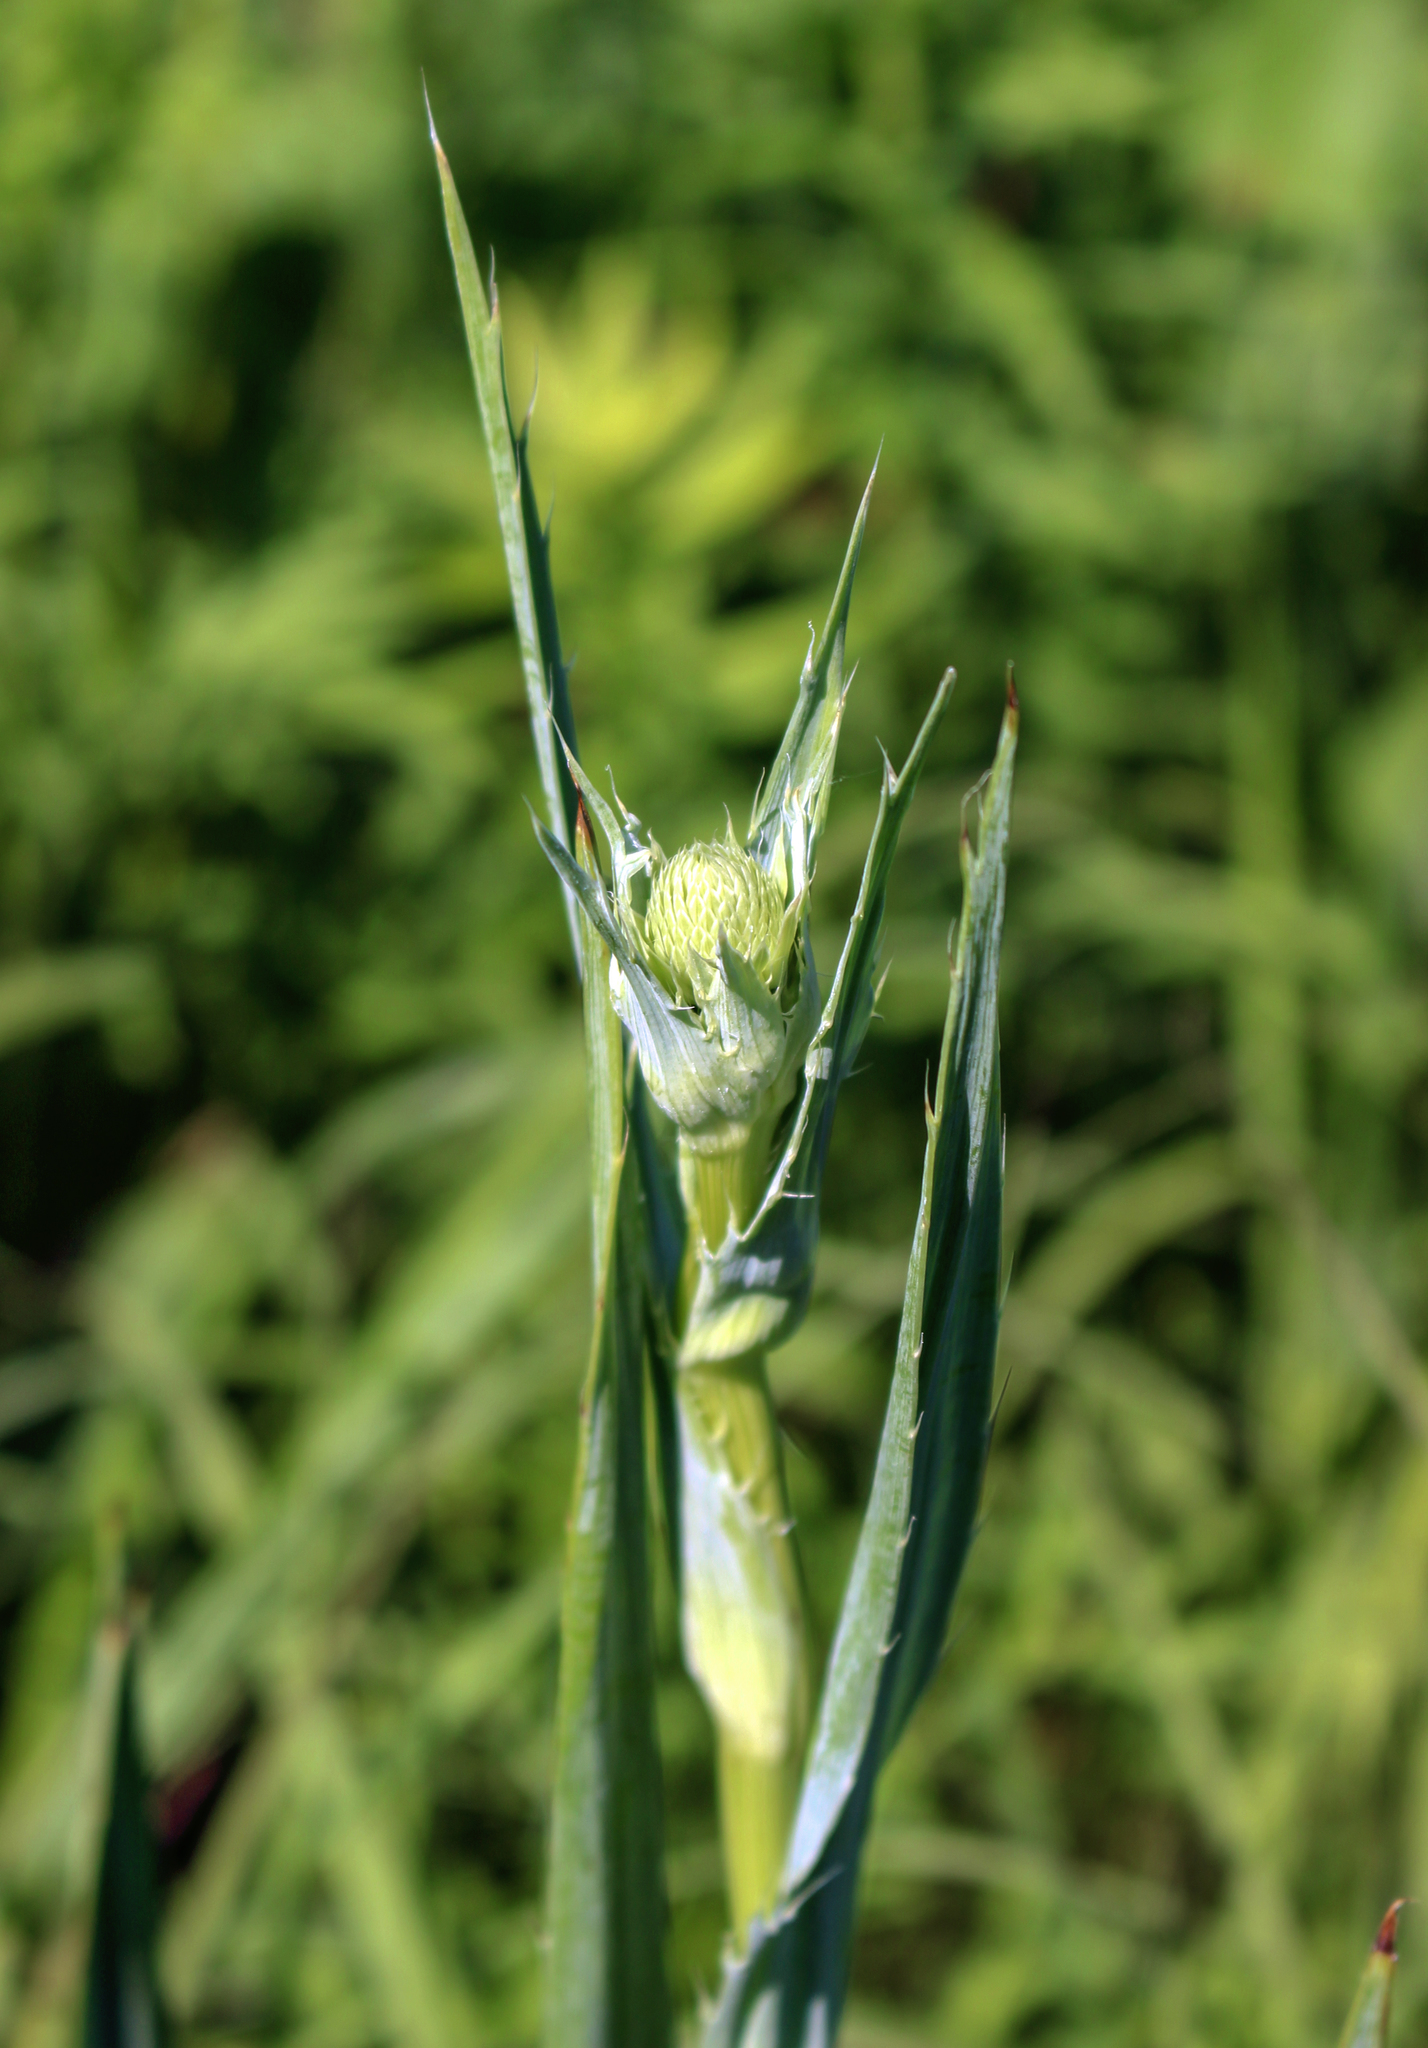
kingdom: Plantae
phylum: Tracheophyta
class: Magnoliopsida
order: Apiales
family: Apiaceae
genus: Eryngium
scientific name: Eryngium yuccifolium
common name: Button eryngo
